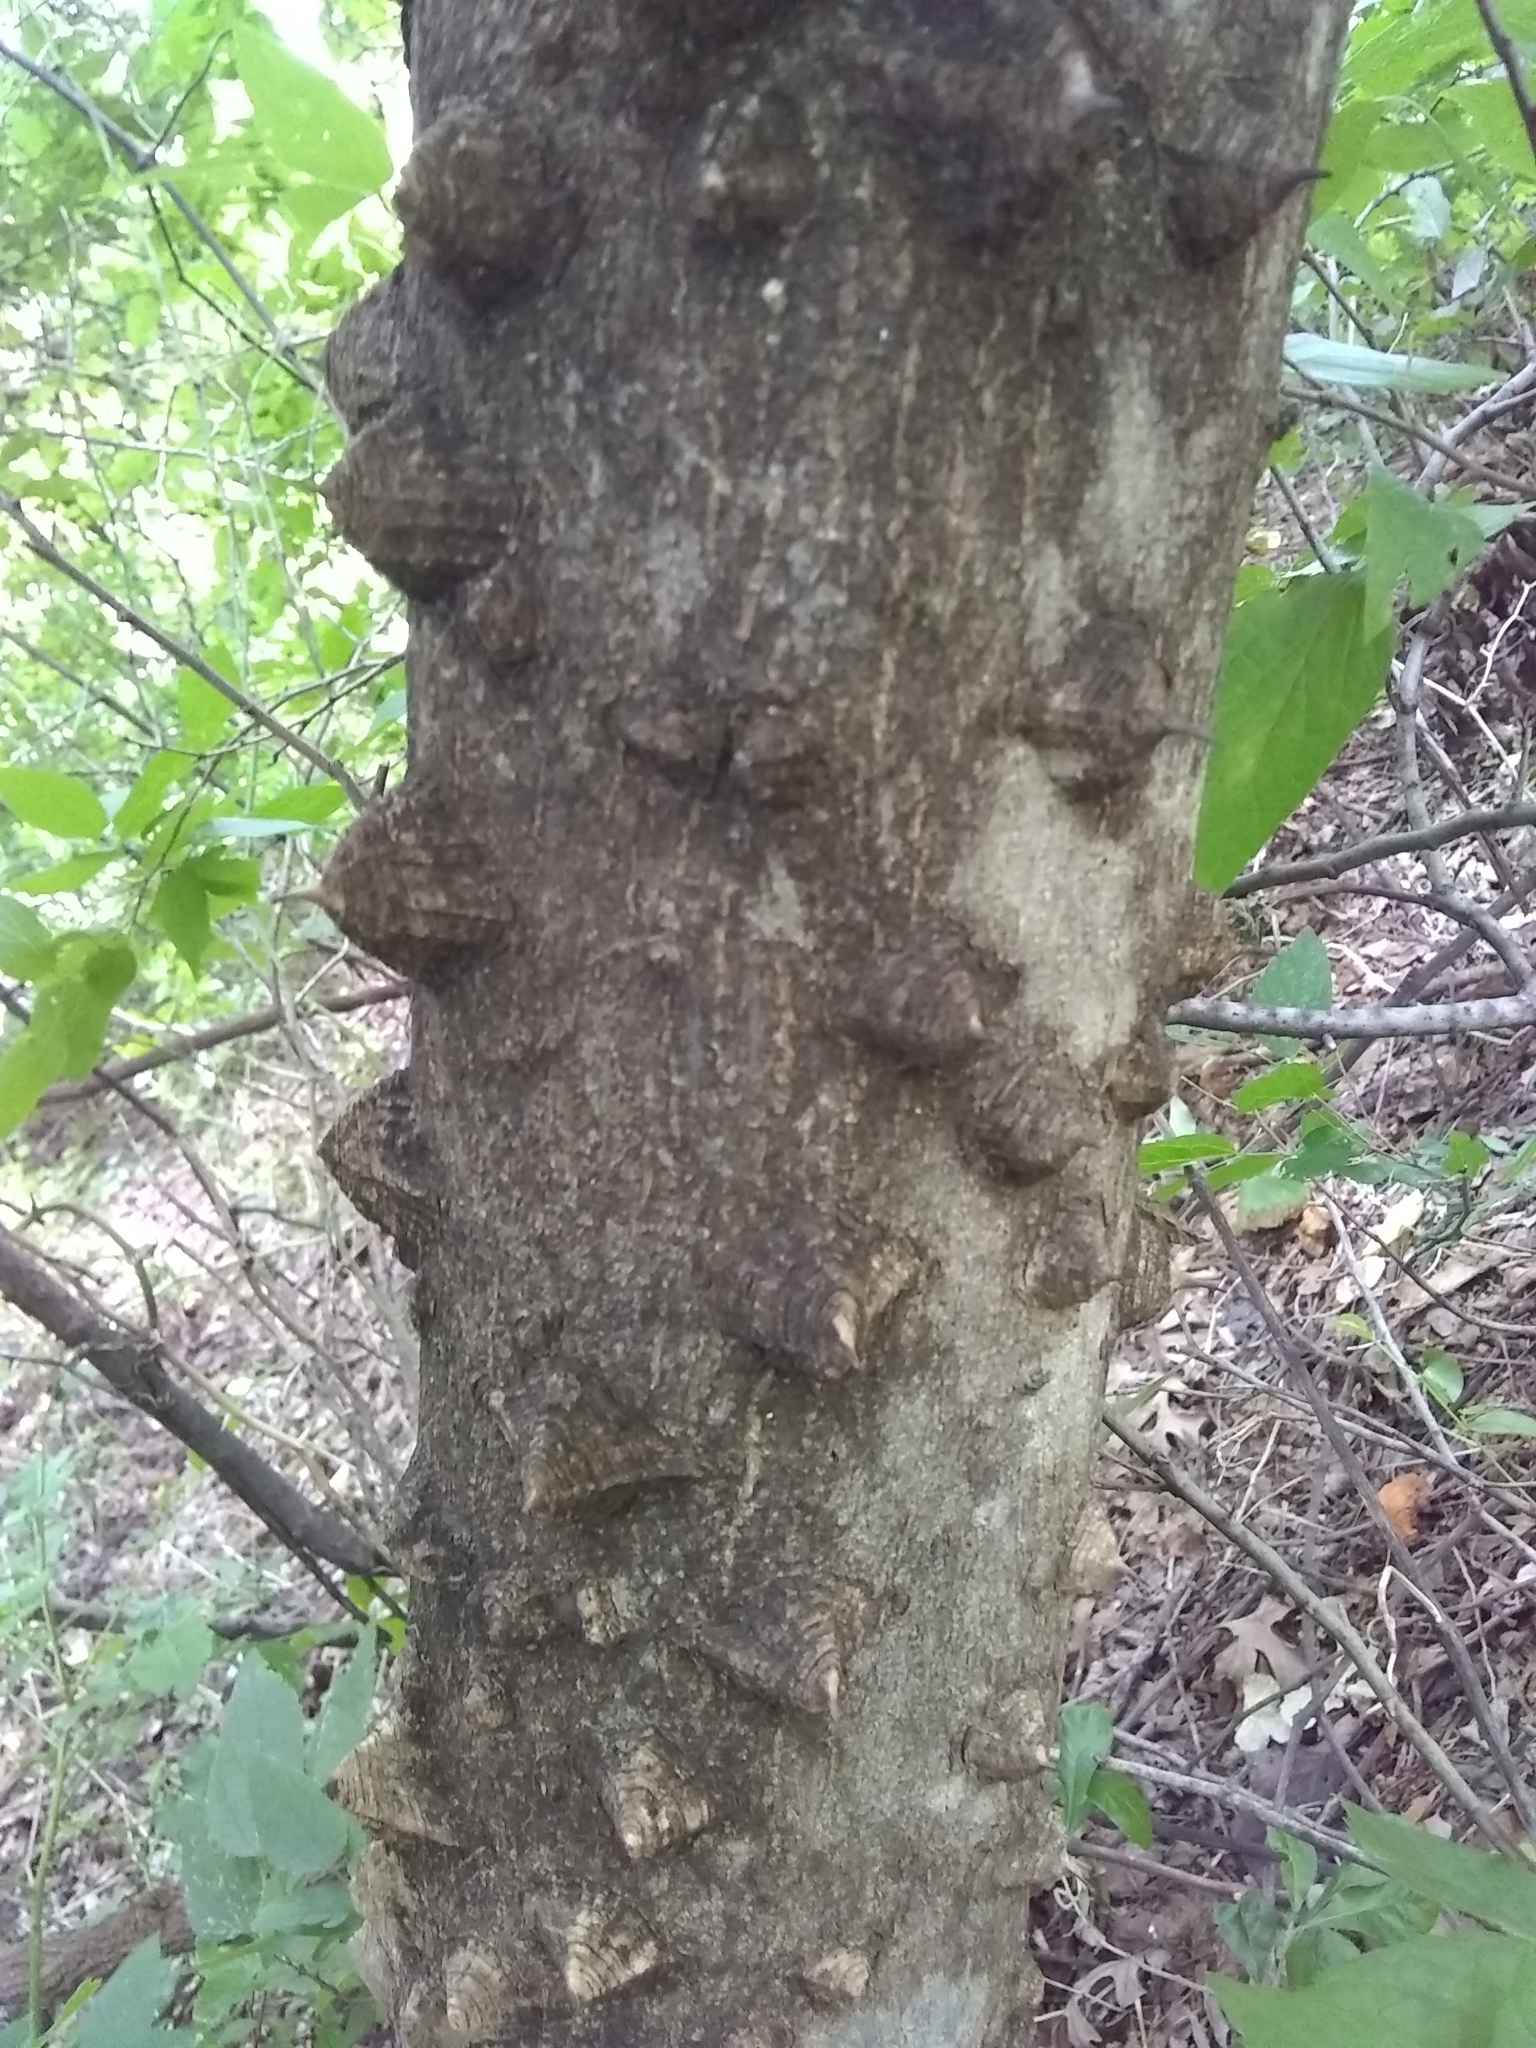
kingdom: Plantae
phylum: Tracheophyta
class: Magnoliopsida
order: Sapindales
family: Rutaceae
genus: Zanthoxylum
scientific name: Zanthoxylum clava-herculis
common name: Hercules'-club
